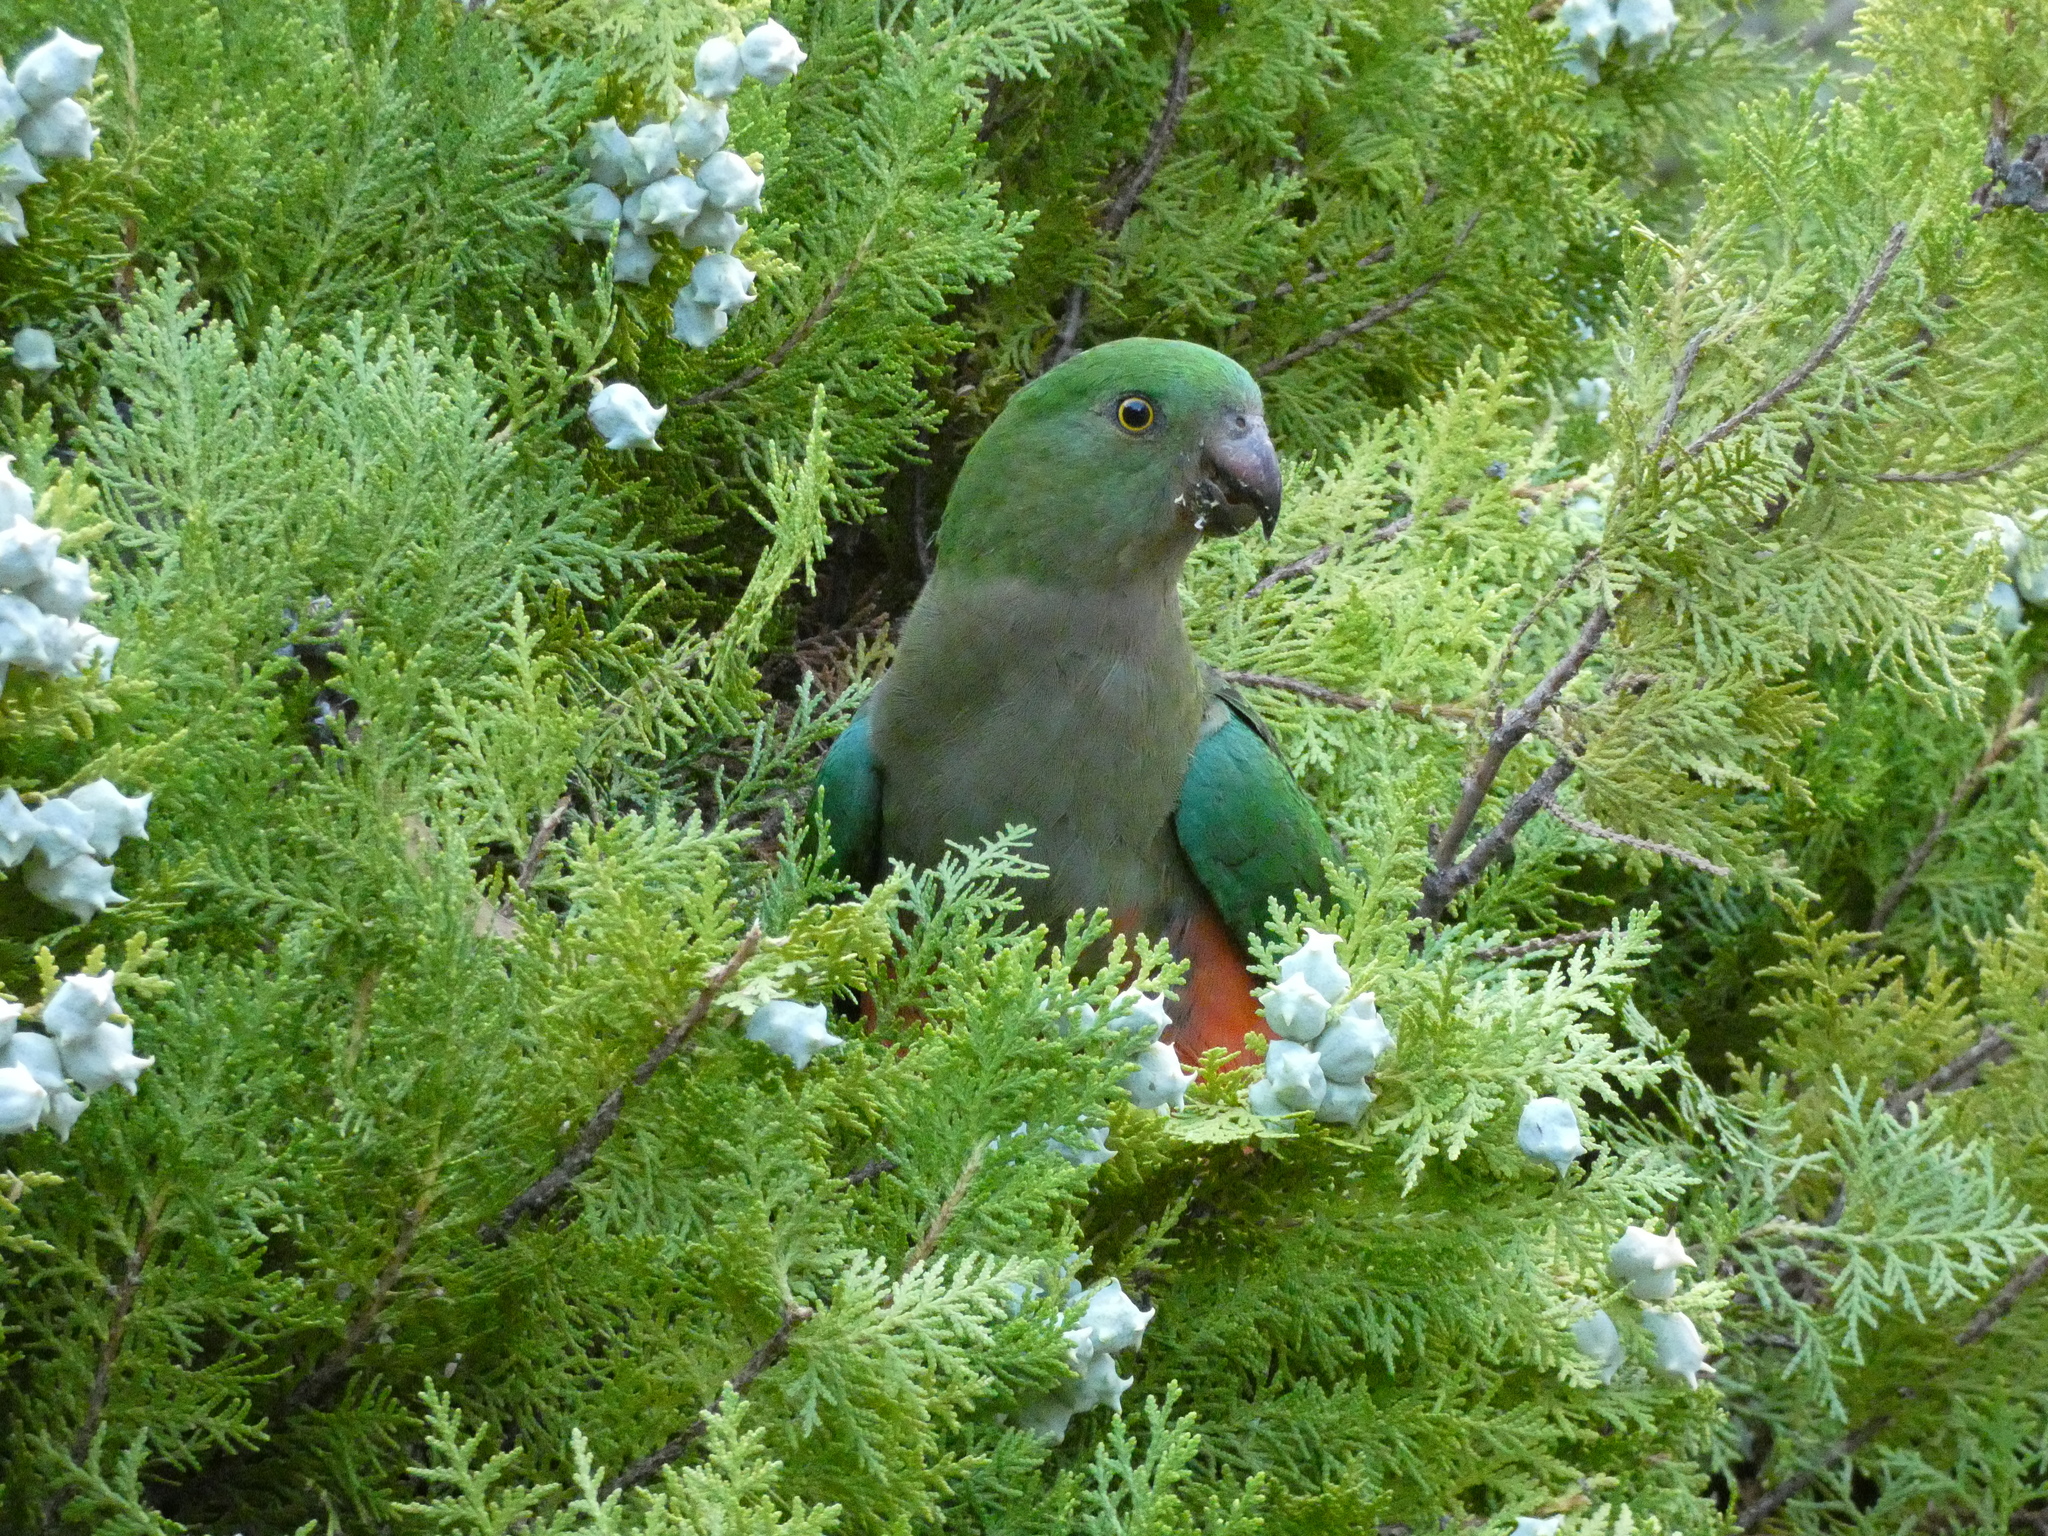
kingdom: Animalia
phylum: Chordata
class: Aves
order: Psittaciformes
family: Psittacidae
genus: Alisterus
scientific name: Alisterus scapularis
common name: Australian king parrot
